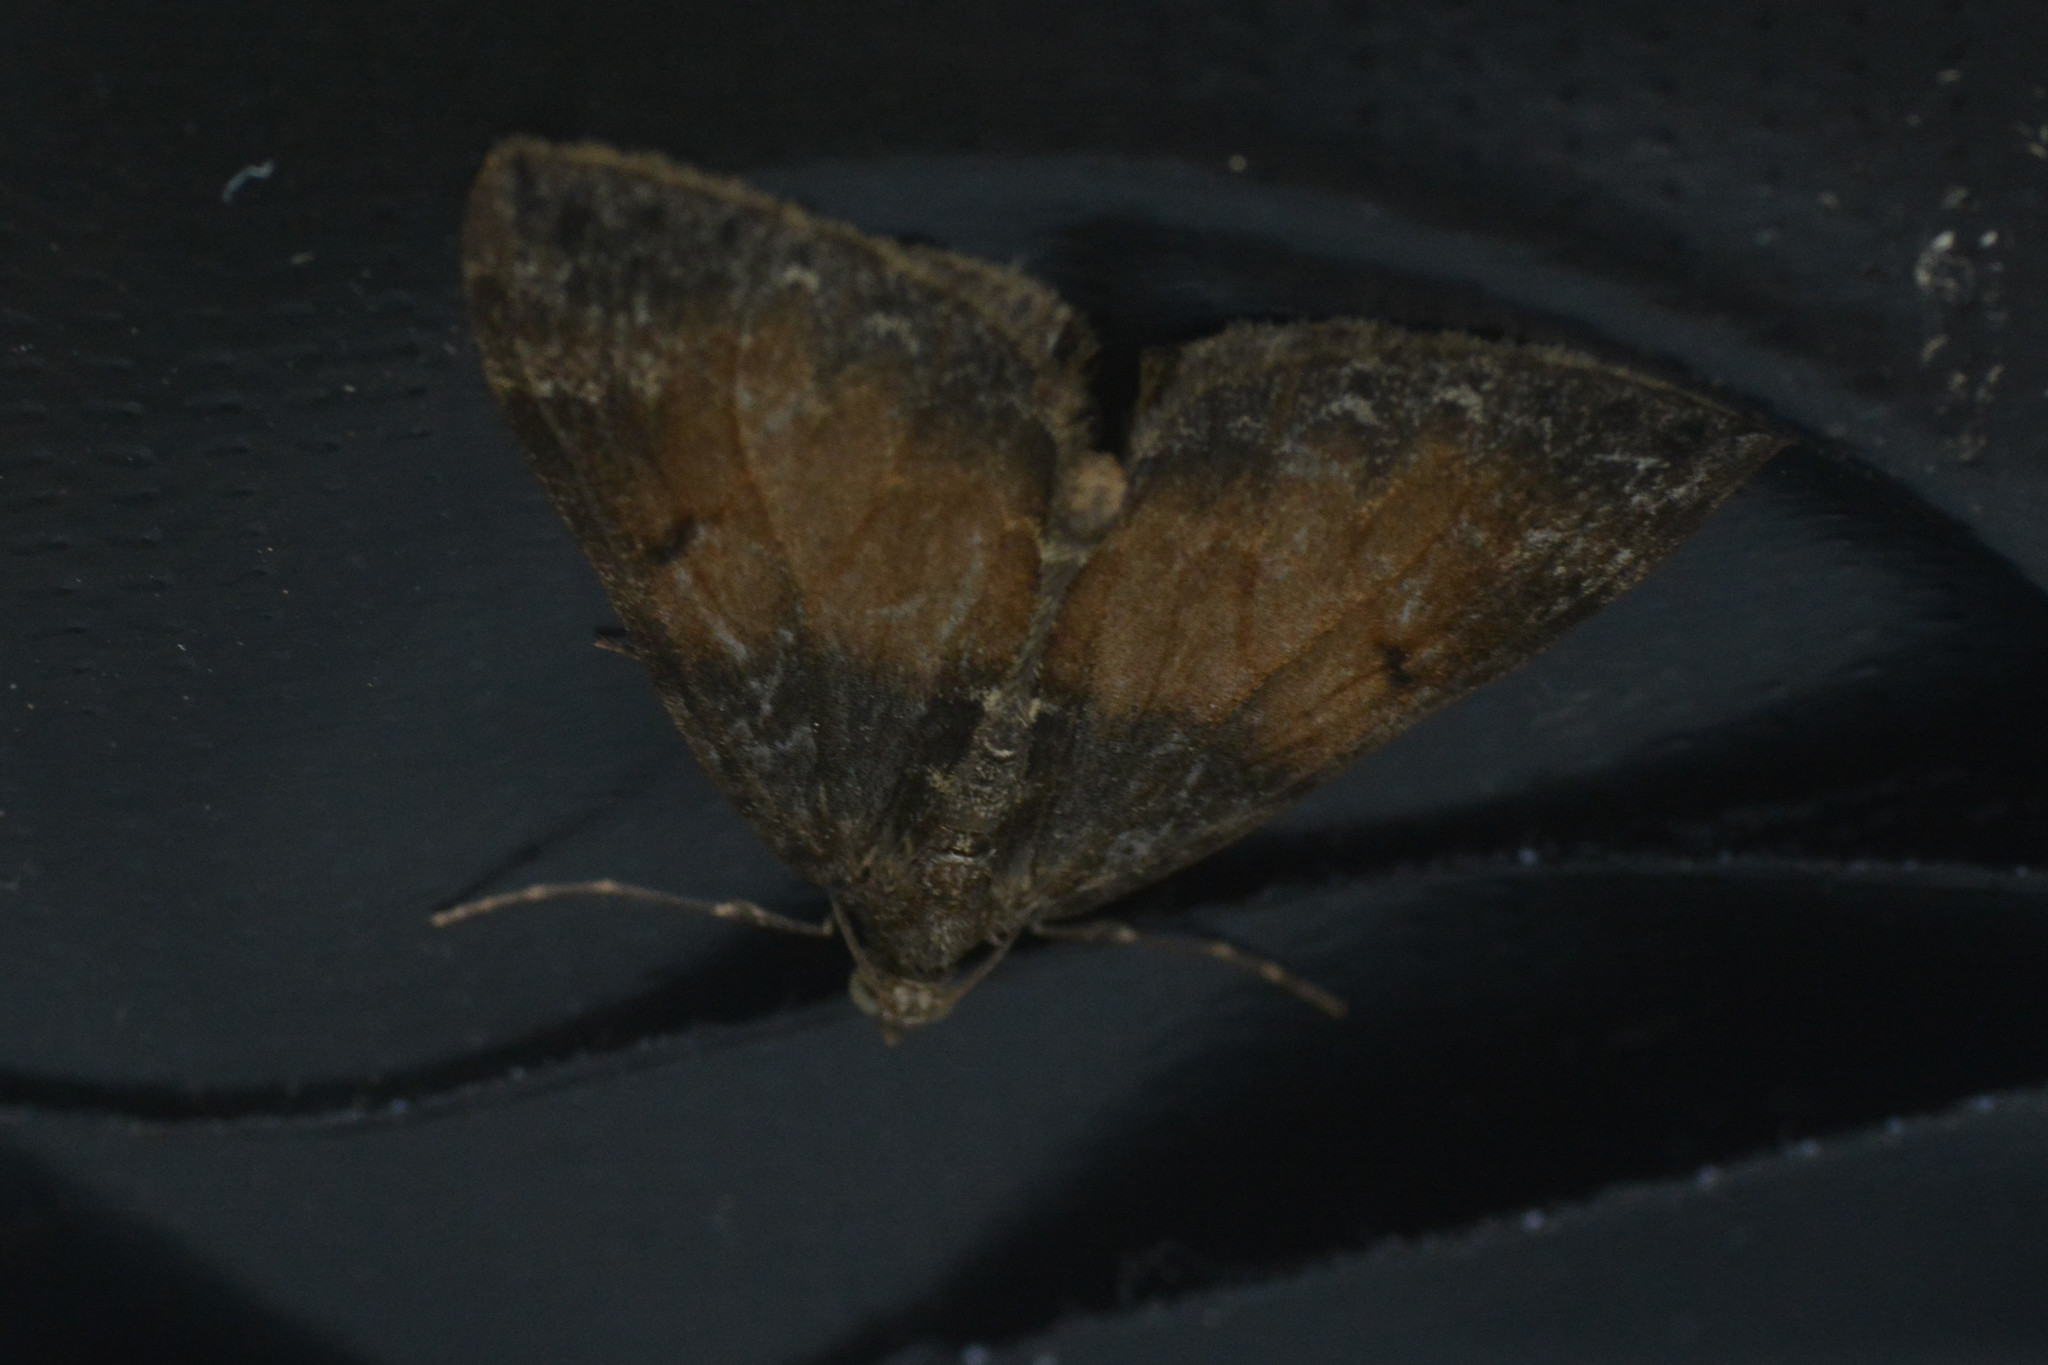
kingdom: Animalia
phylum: Arthropoda
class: Insecta
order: Lepidoptera
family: Geometridae
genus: Dysstroma
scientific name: Dysstroma truncata
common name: Common marbled carpet
